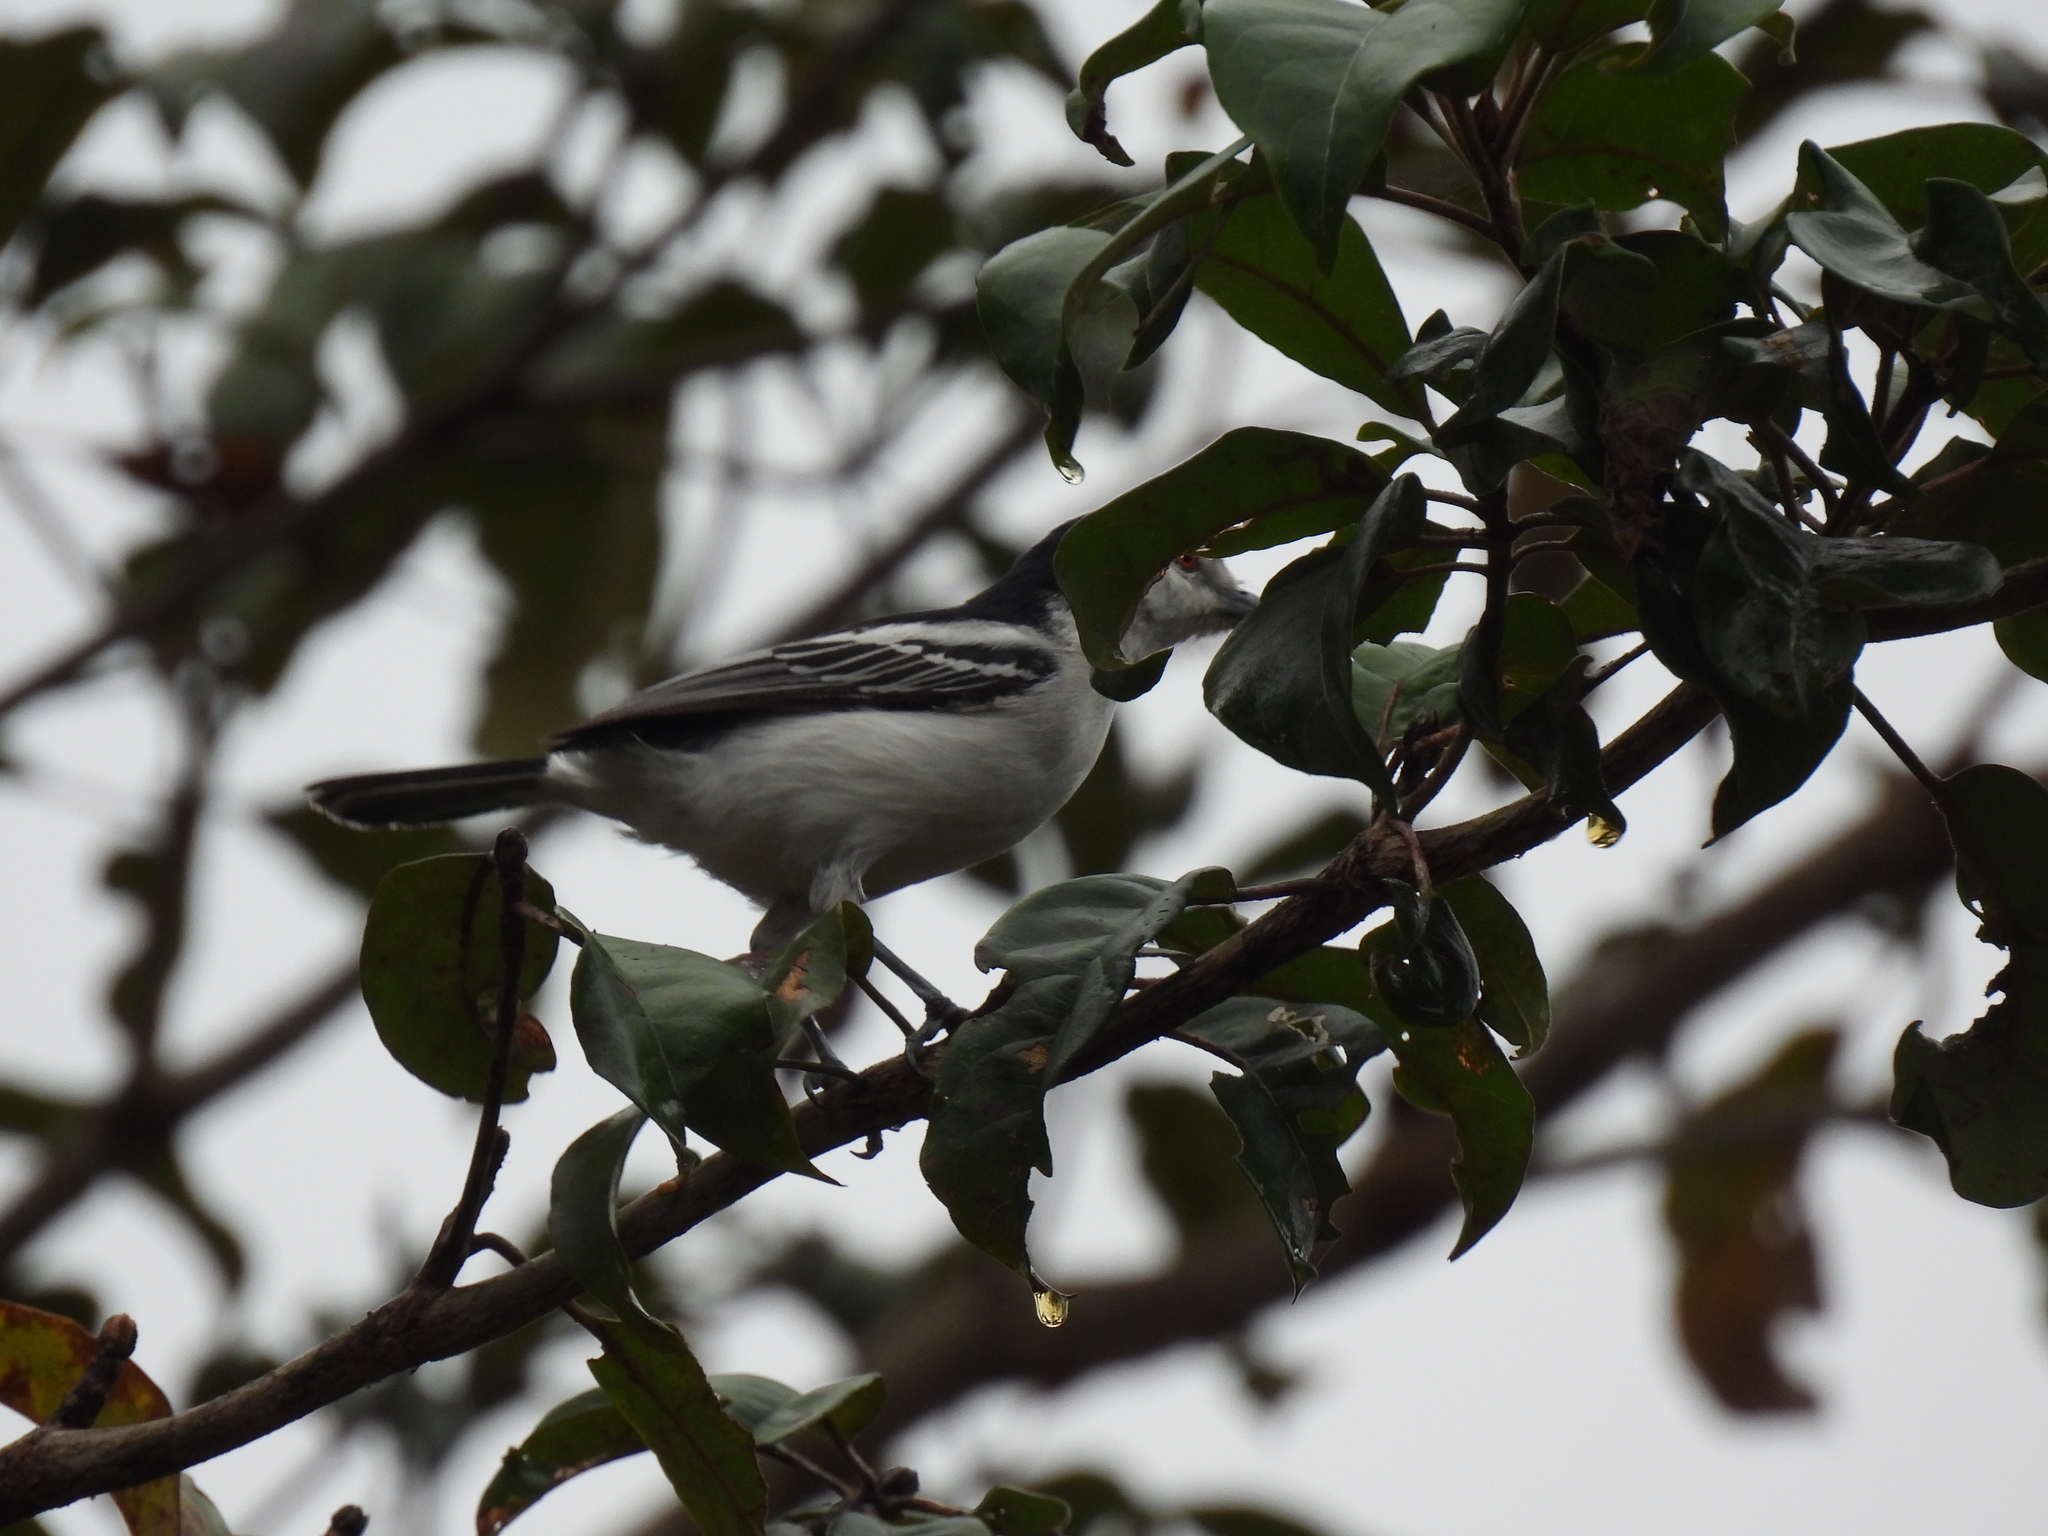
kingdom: Animalia
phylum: Chordata
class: Aves
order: Passeriformes
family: Malaconotidae
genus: Dryoscopus
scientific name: Dryoscopus cubla
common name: Black-backed puffback
